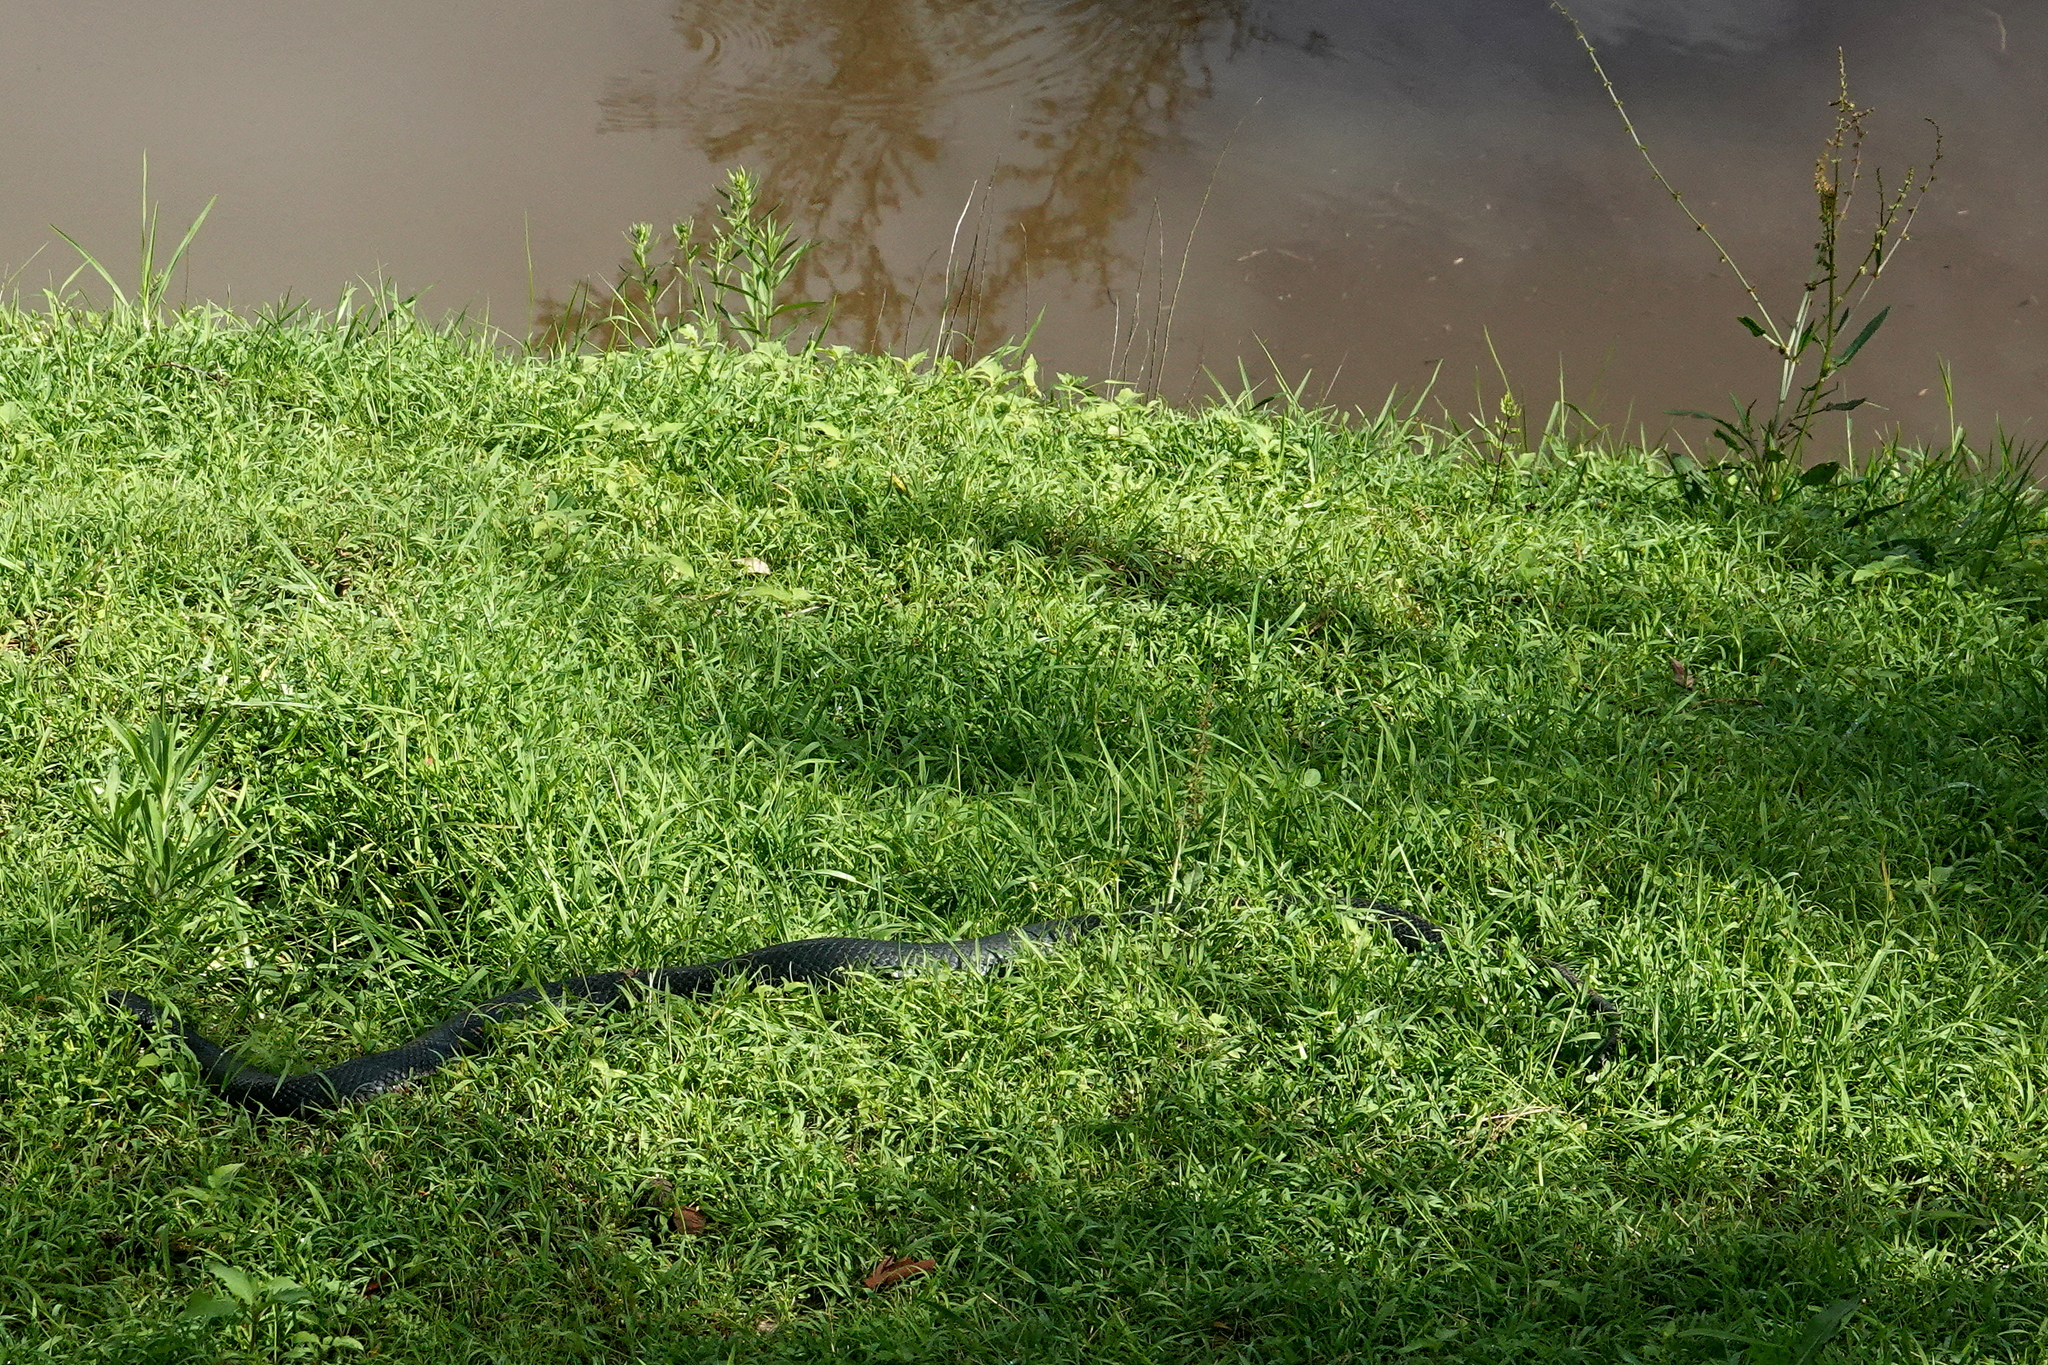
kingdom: Animalia
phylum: Chordata
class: Squamata
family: Elapidae
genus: Pseudechis
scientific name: Pseudechis porphyriacus
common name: Australian black snake
